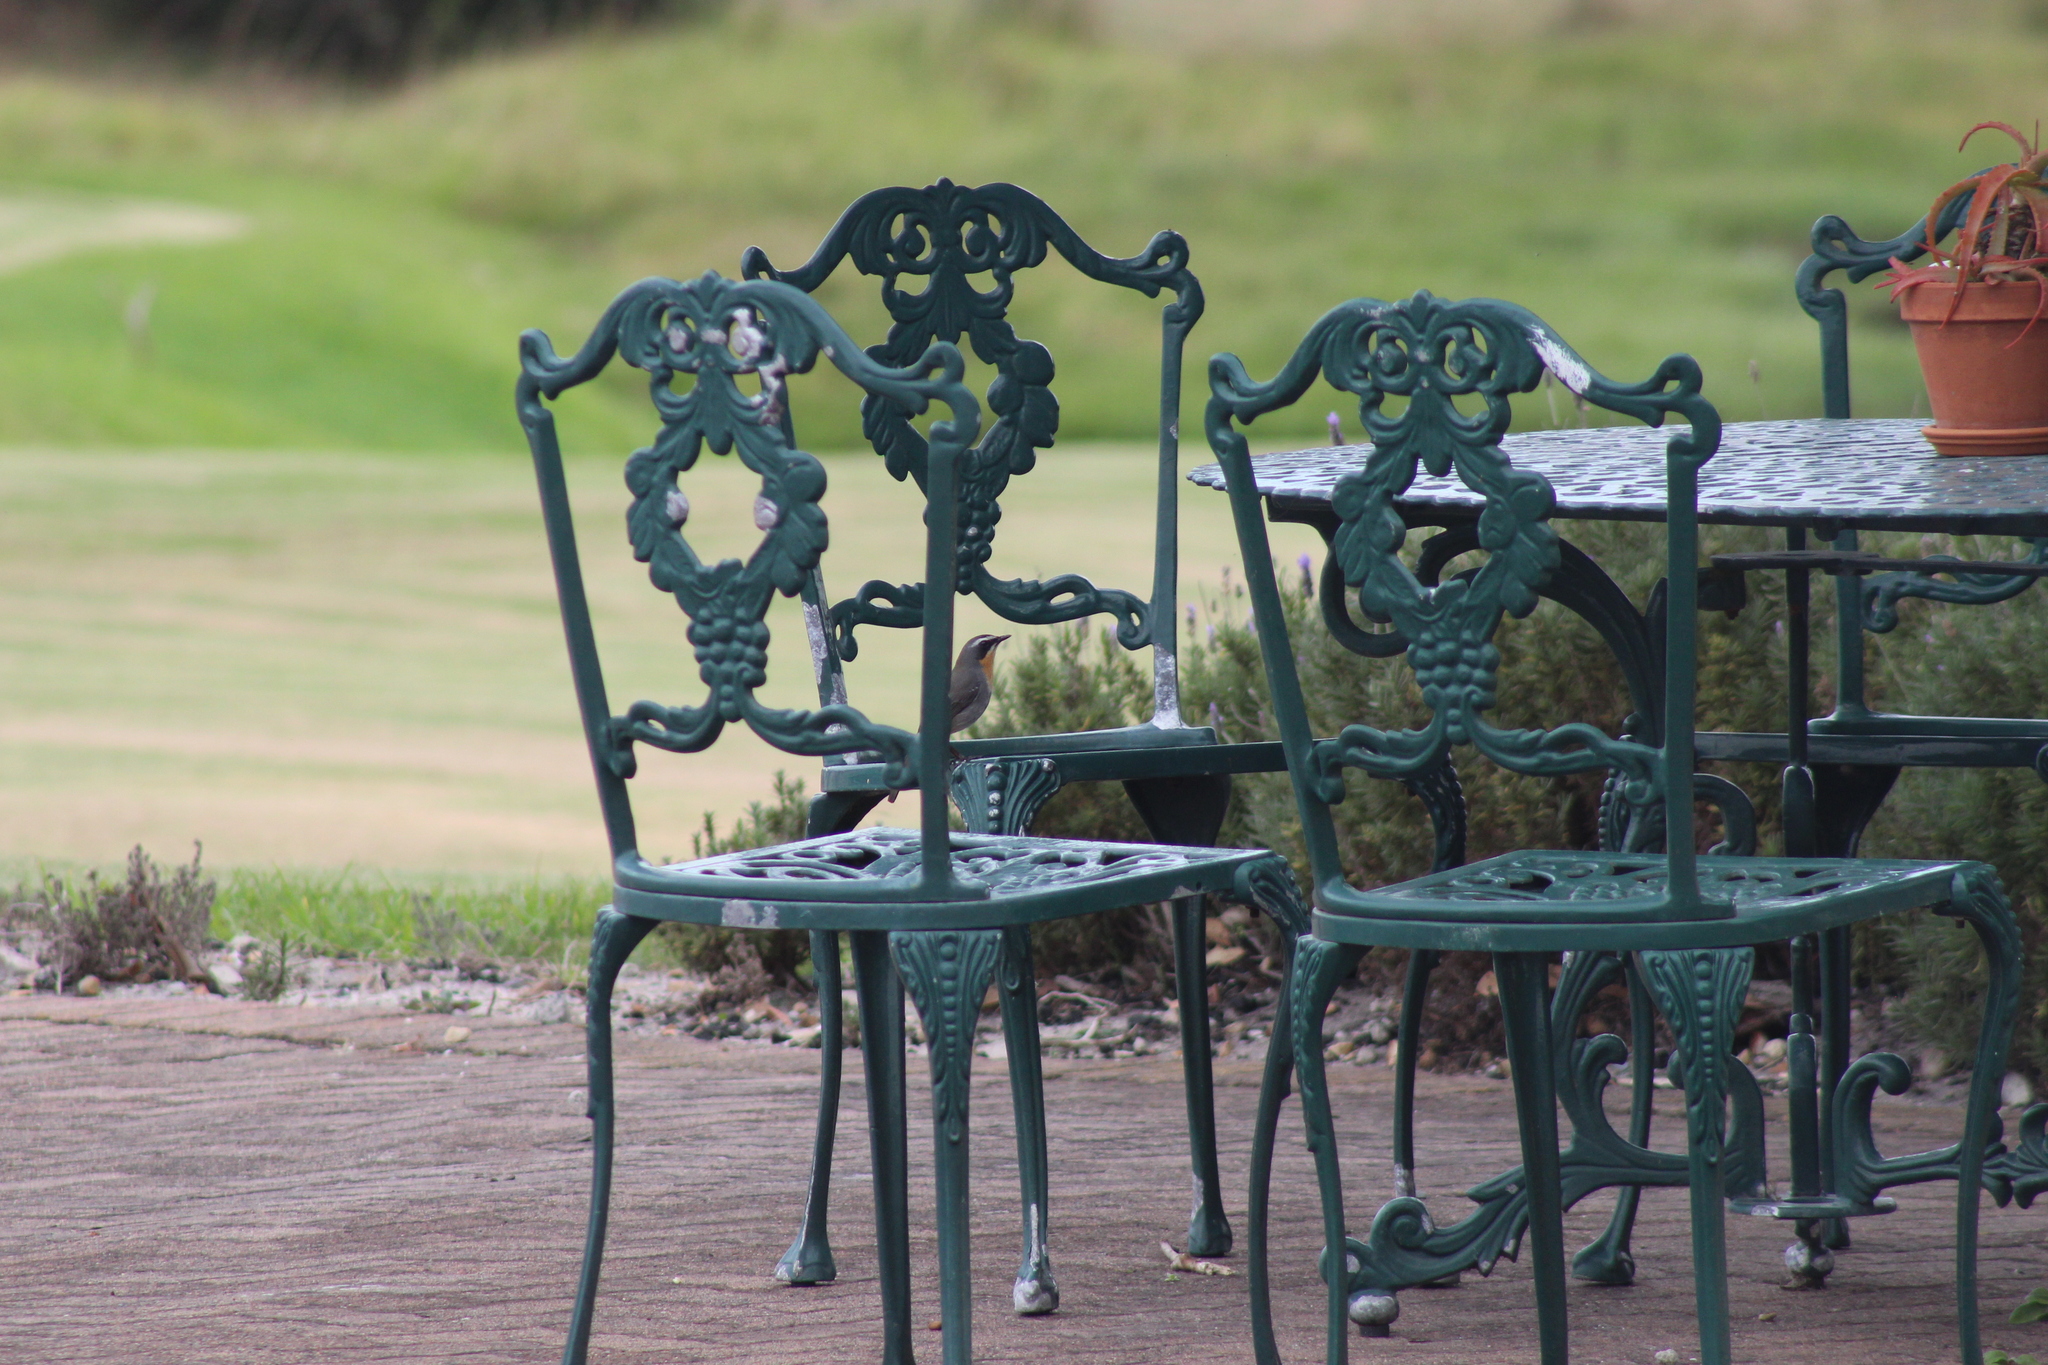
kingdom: Animalia
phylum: Chordata
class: Aves
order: Passeriformes
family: Muscicapidae
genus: Cossypha
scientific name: Cossypha caffra
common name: Cape robin-chat
